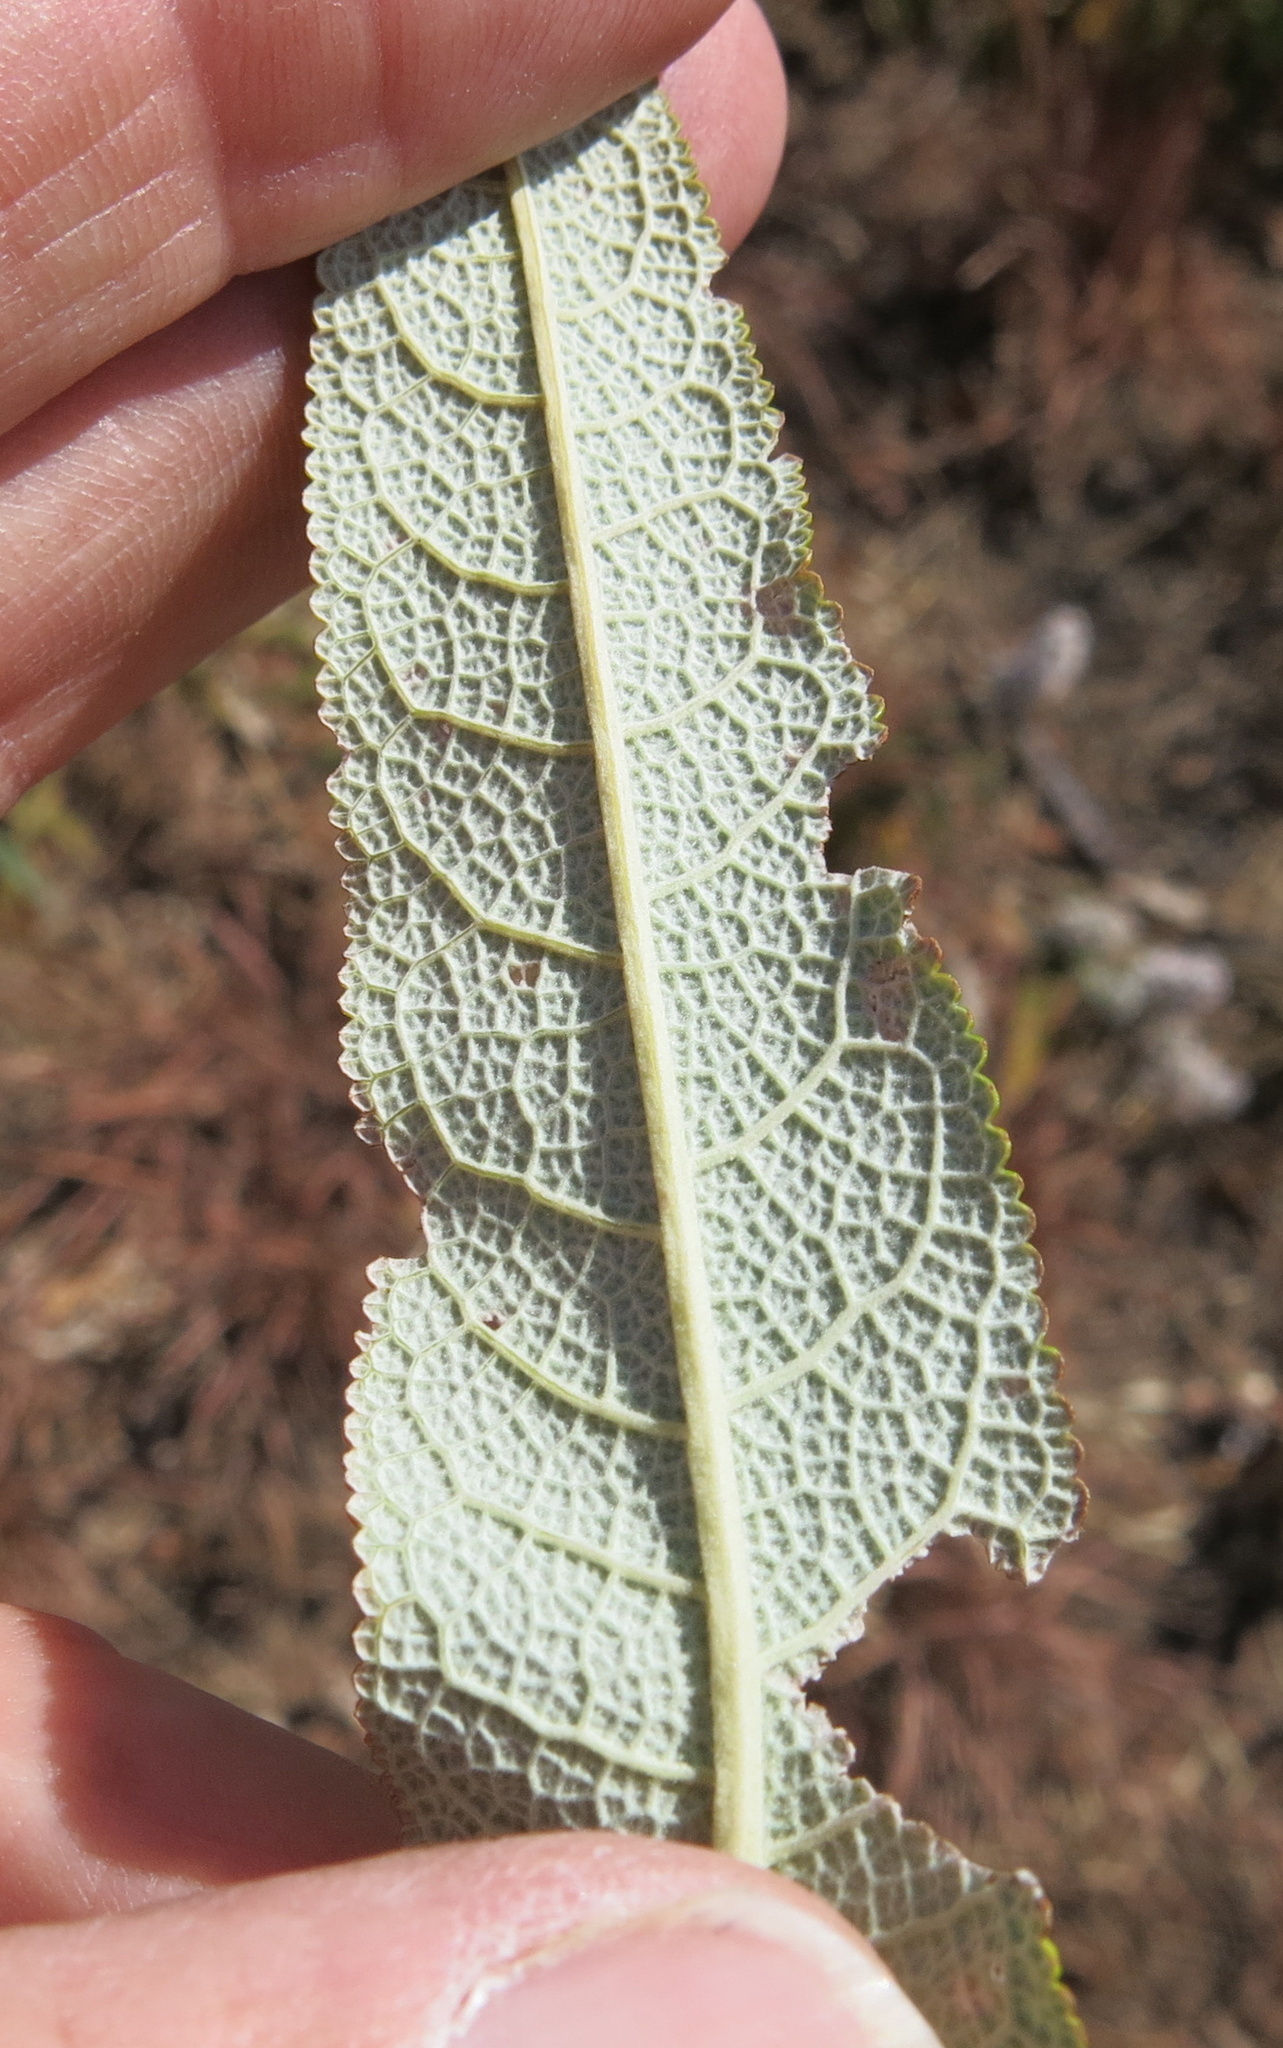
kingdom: Plantae
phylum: Tracheophyta
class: Magnoliopsida
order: Lamiales
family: Scrophulariaceae
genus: Buddleja
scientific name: Buddleja salviifolia
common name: Sagewood
